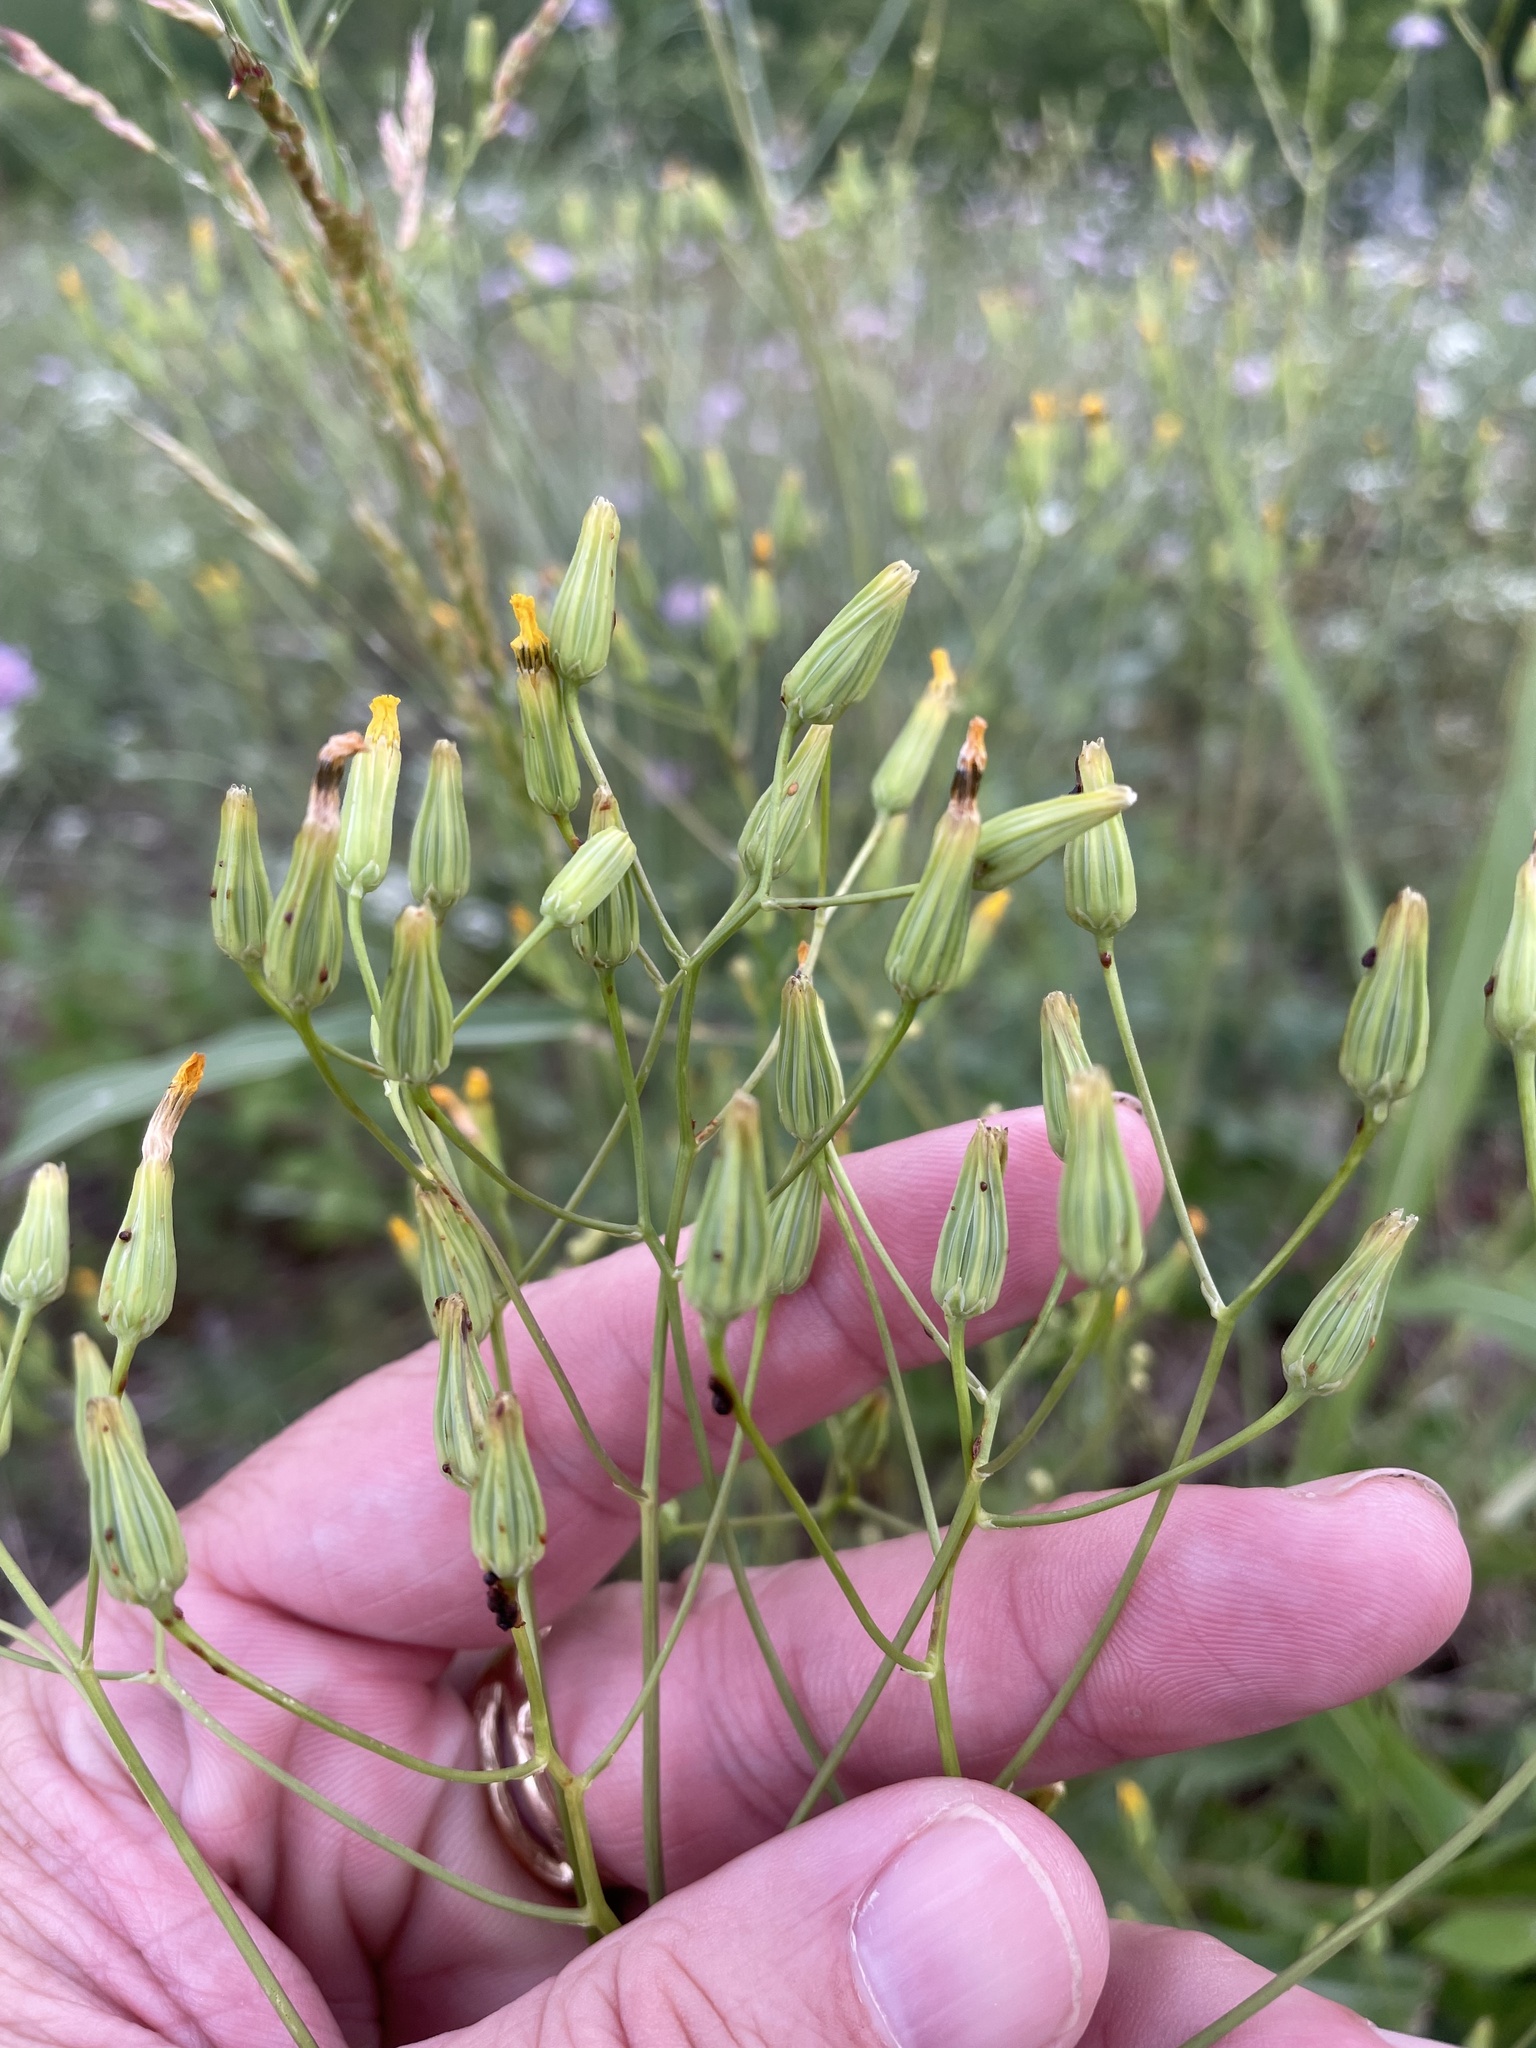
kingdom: Plantae
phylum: Tracheophyta
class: Magnoliopsida
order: Asterales
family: Asteraceae
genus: Crepis
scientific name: Crepis pulchra
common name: Hawk's-beard
